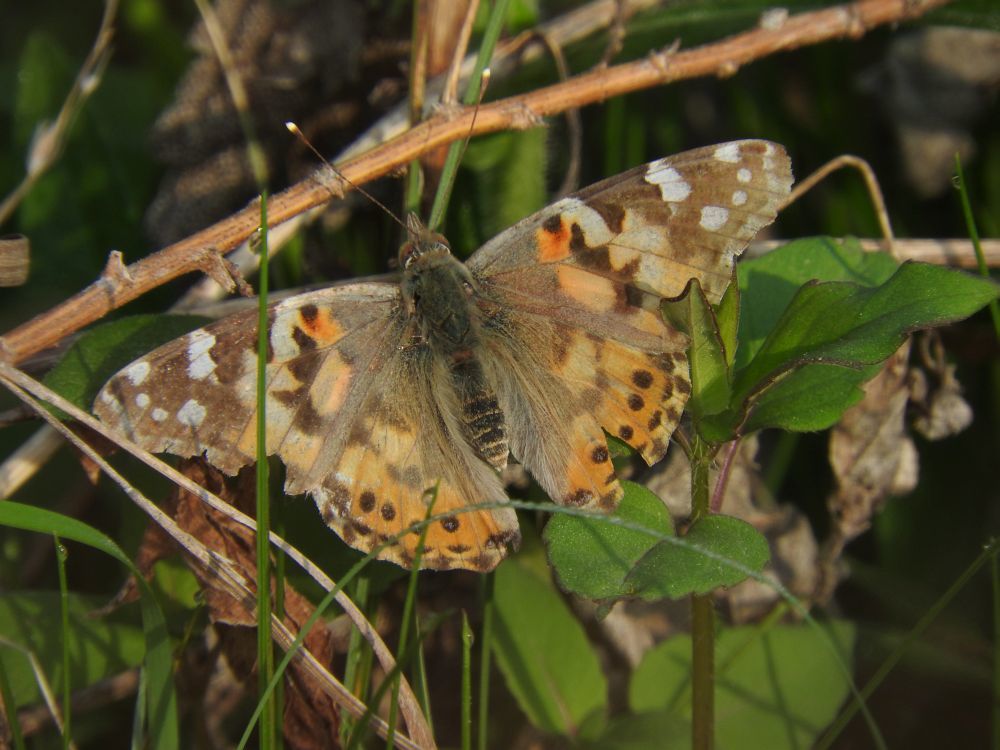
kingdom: Animalia
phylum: Arthropoda
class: Insecta
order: Lepidoptera
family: Nymphalidae
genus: Vanessa
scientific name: Vanessa cardui
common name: Painted lady
